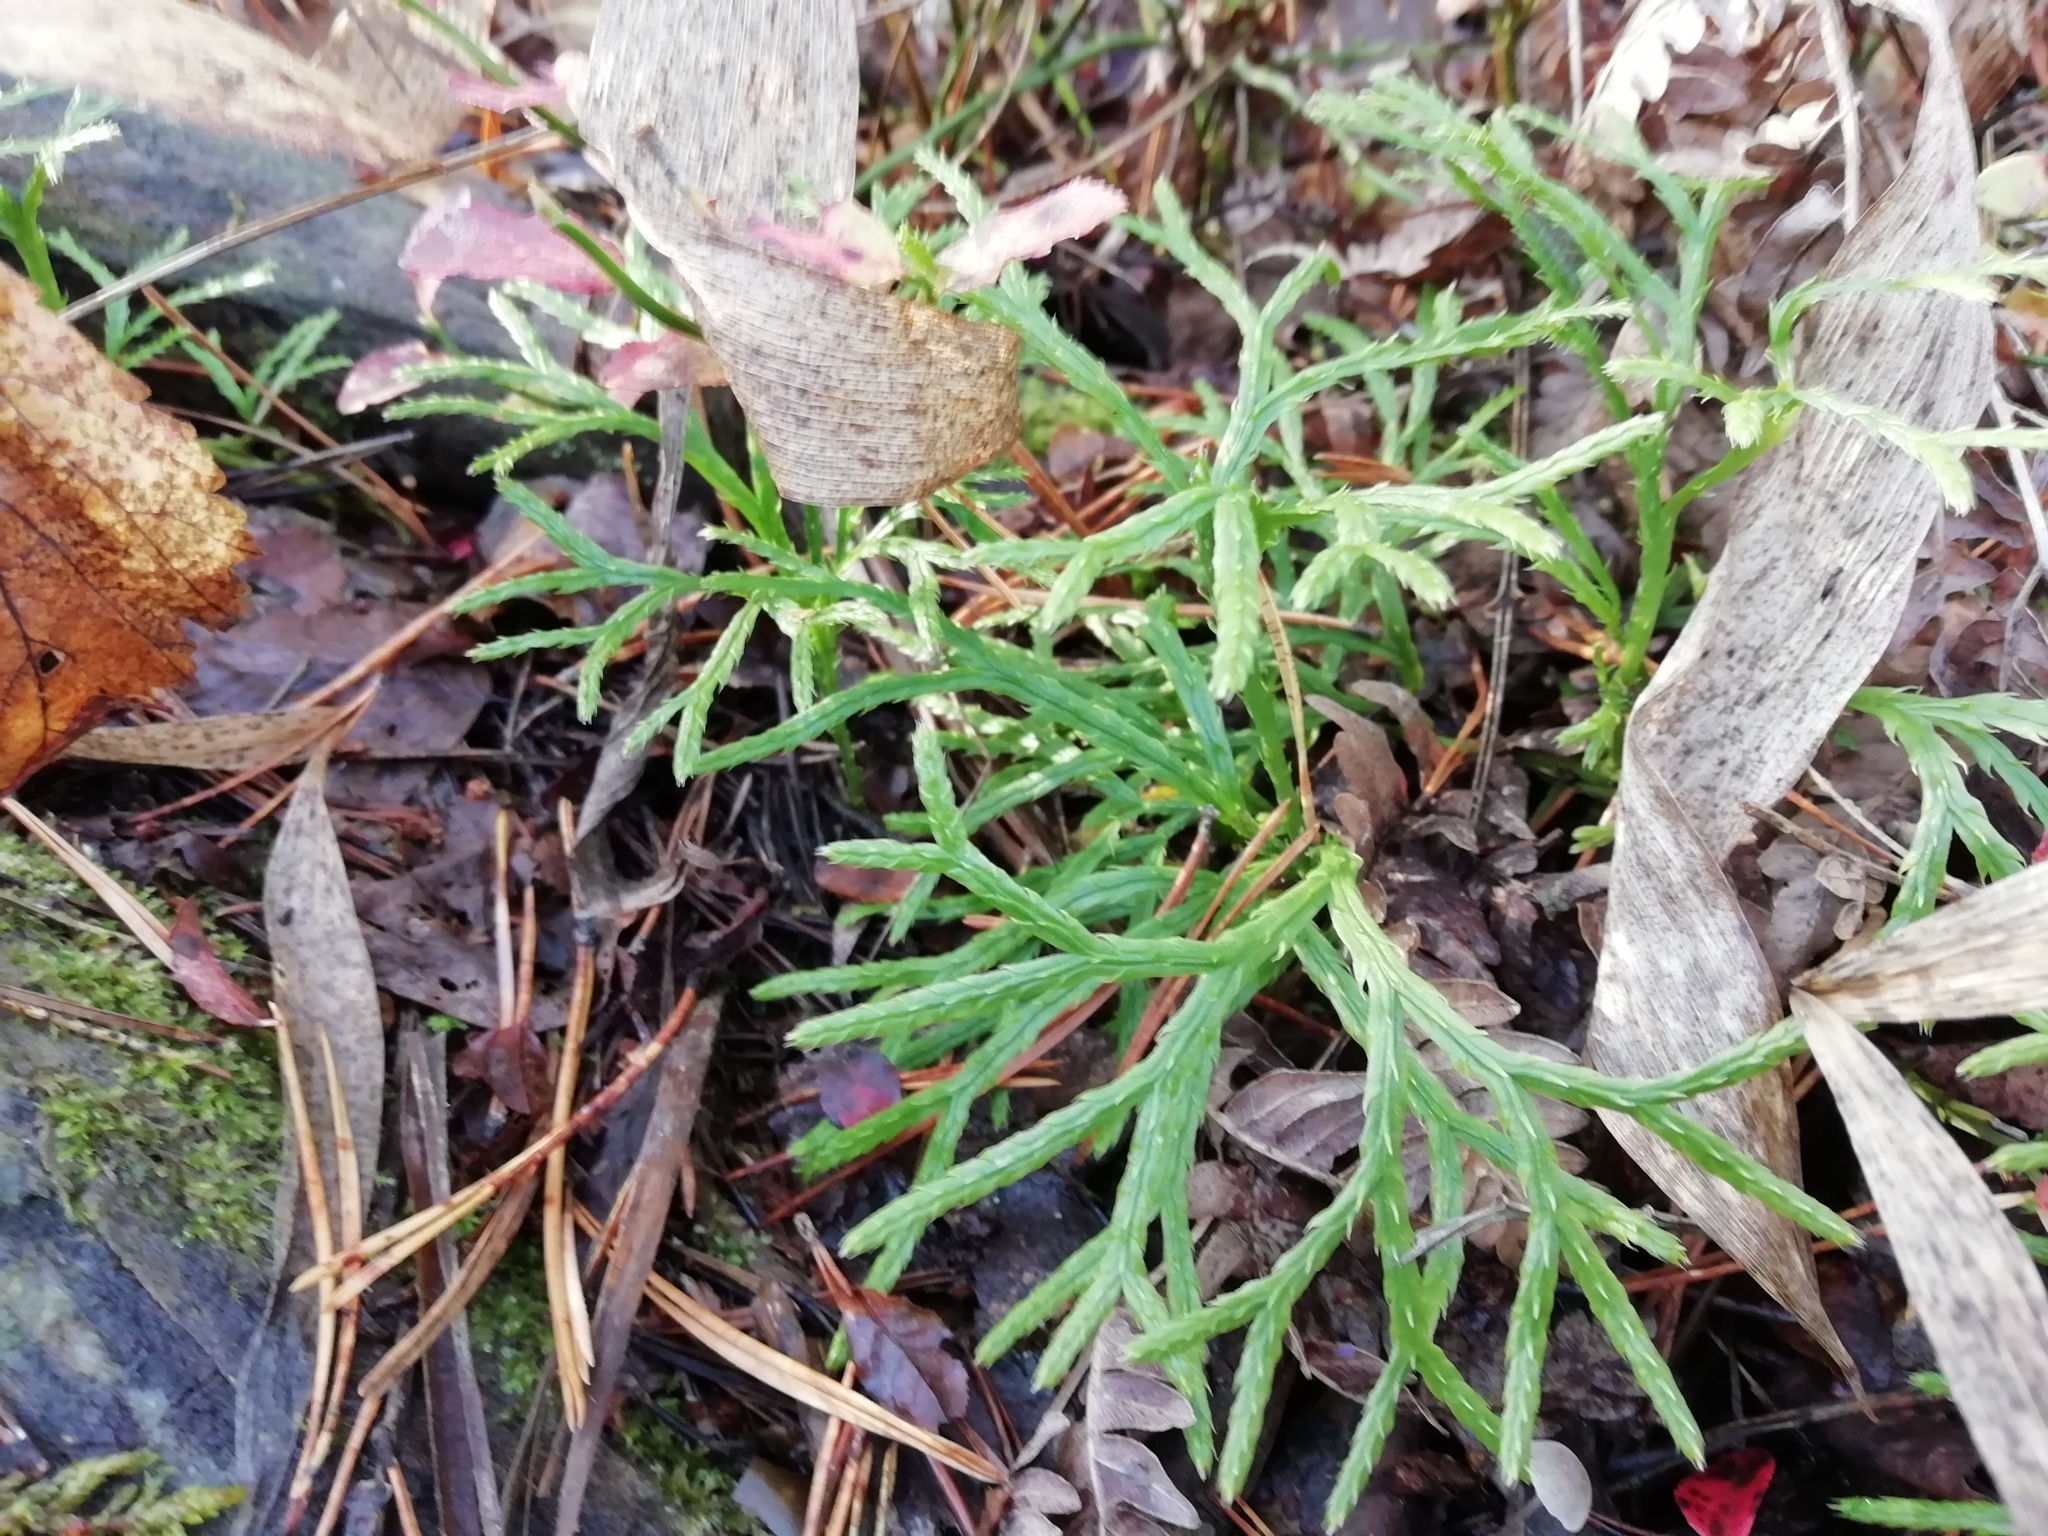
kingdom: Plantae
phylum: Tracheophyta
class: Lycopodiopsida
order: Lycopodiales
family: Lycopodiaceae
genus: Diphasiastrum
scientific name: Diphasiastrum complanatum
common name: Northern running-pine
